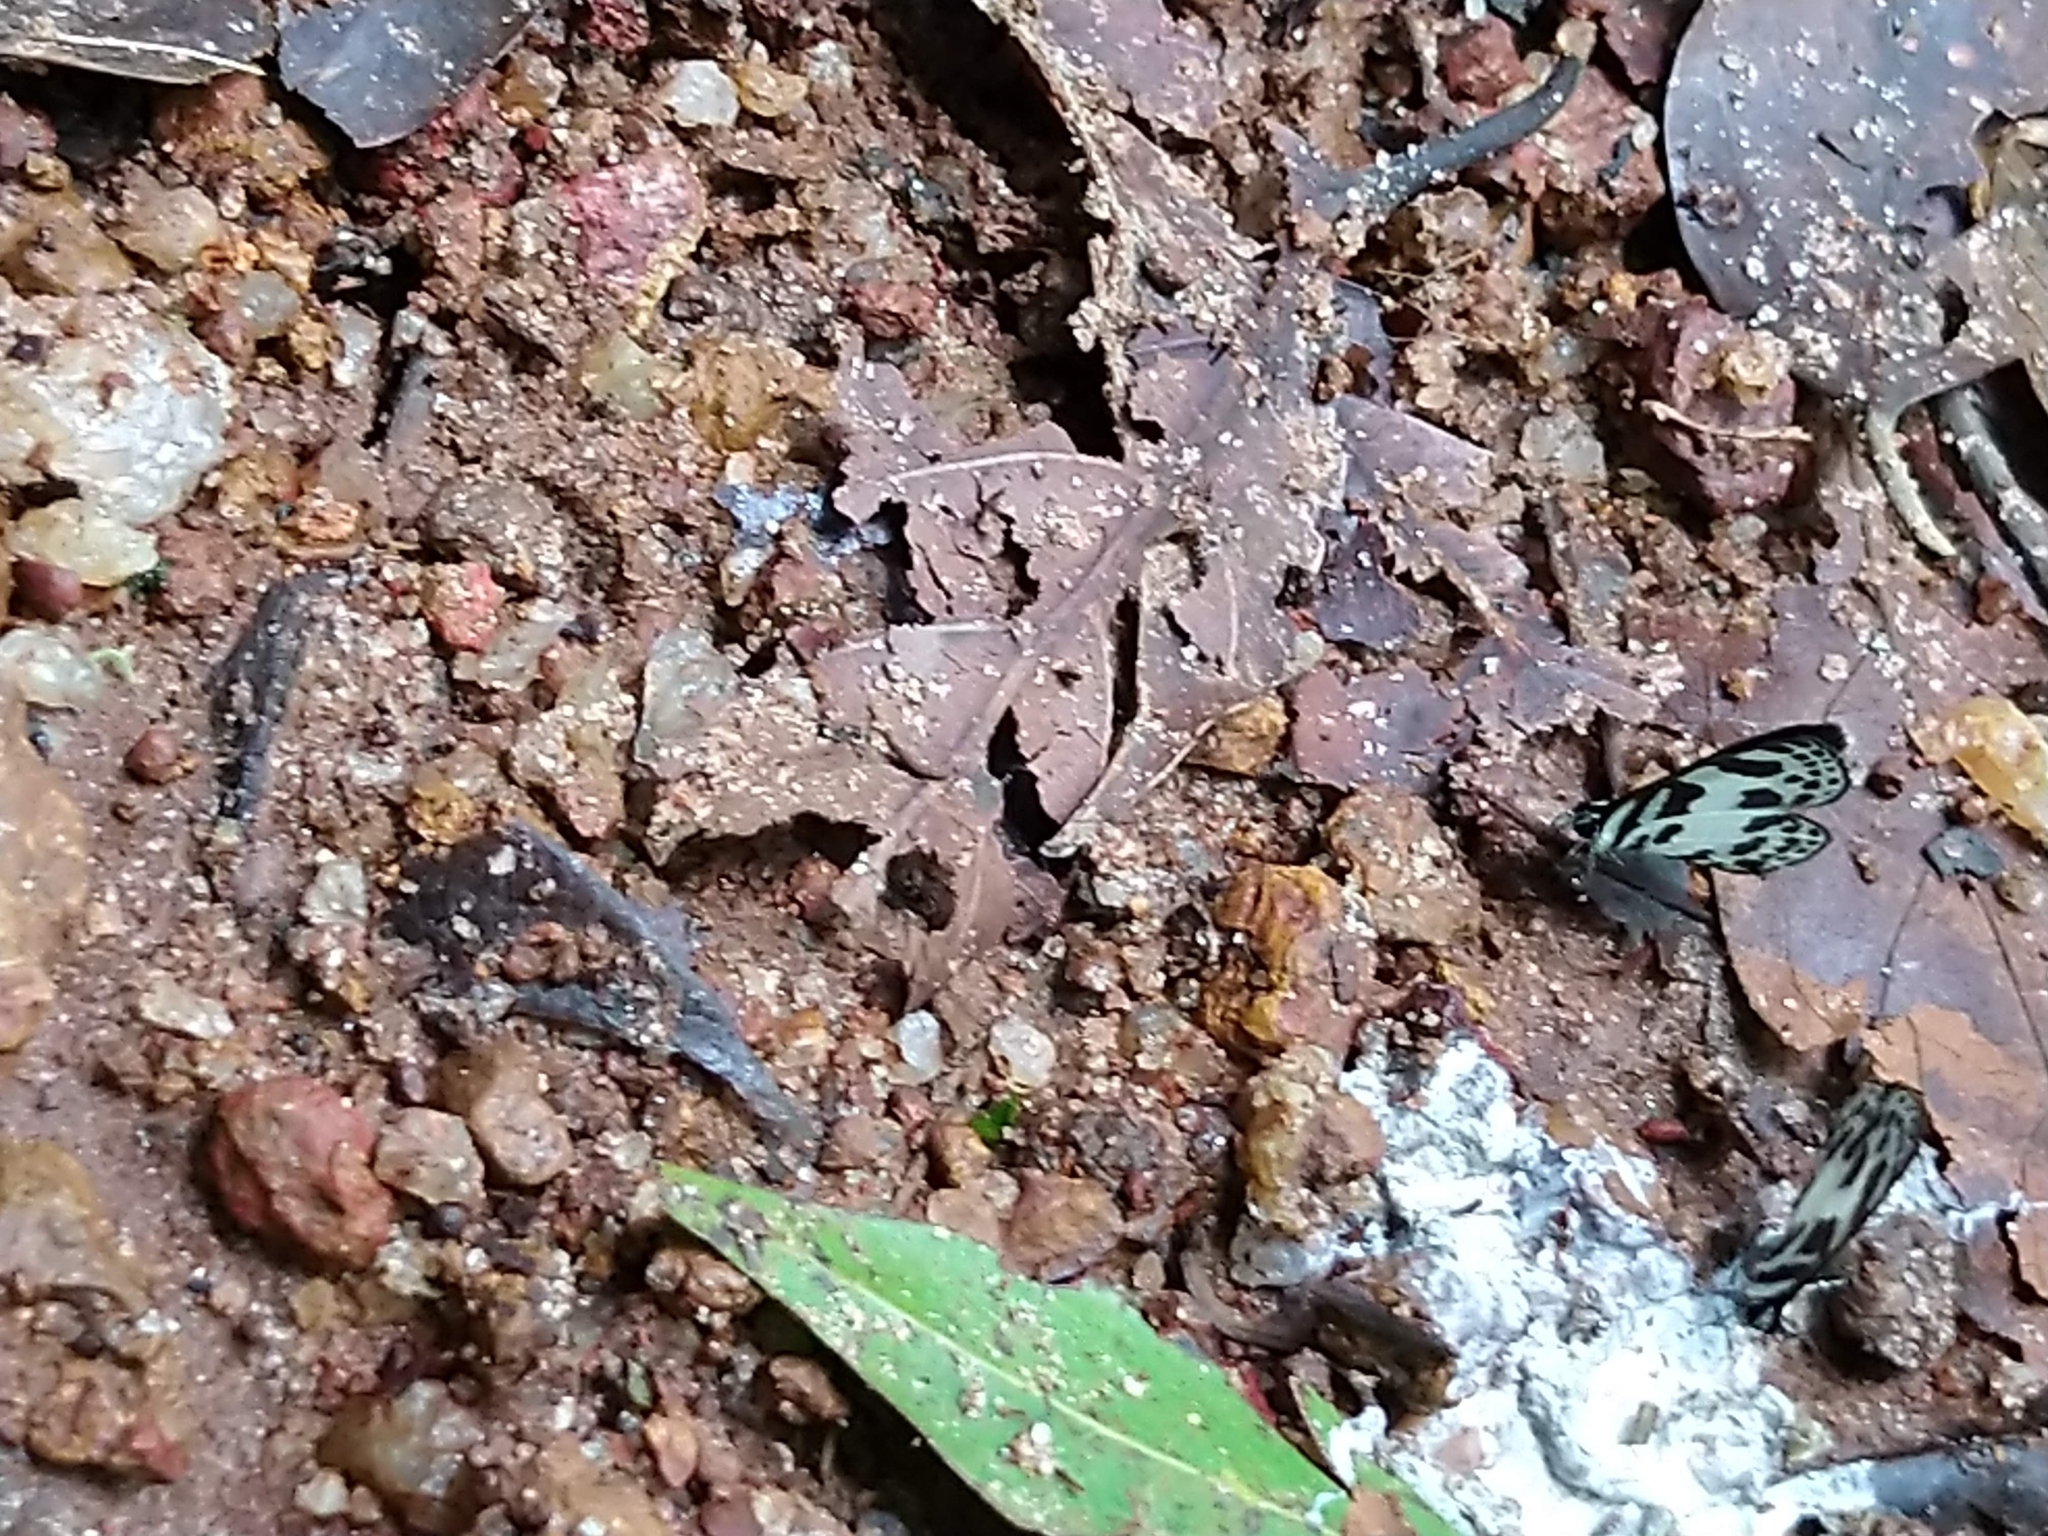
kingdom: Animalia
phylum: Arthropoda
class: Insecta
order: Lepidoptera
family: Lycaenidae
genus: Discolampa
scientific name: Discolampa ethion
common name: Banded blue pierrot
